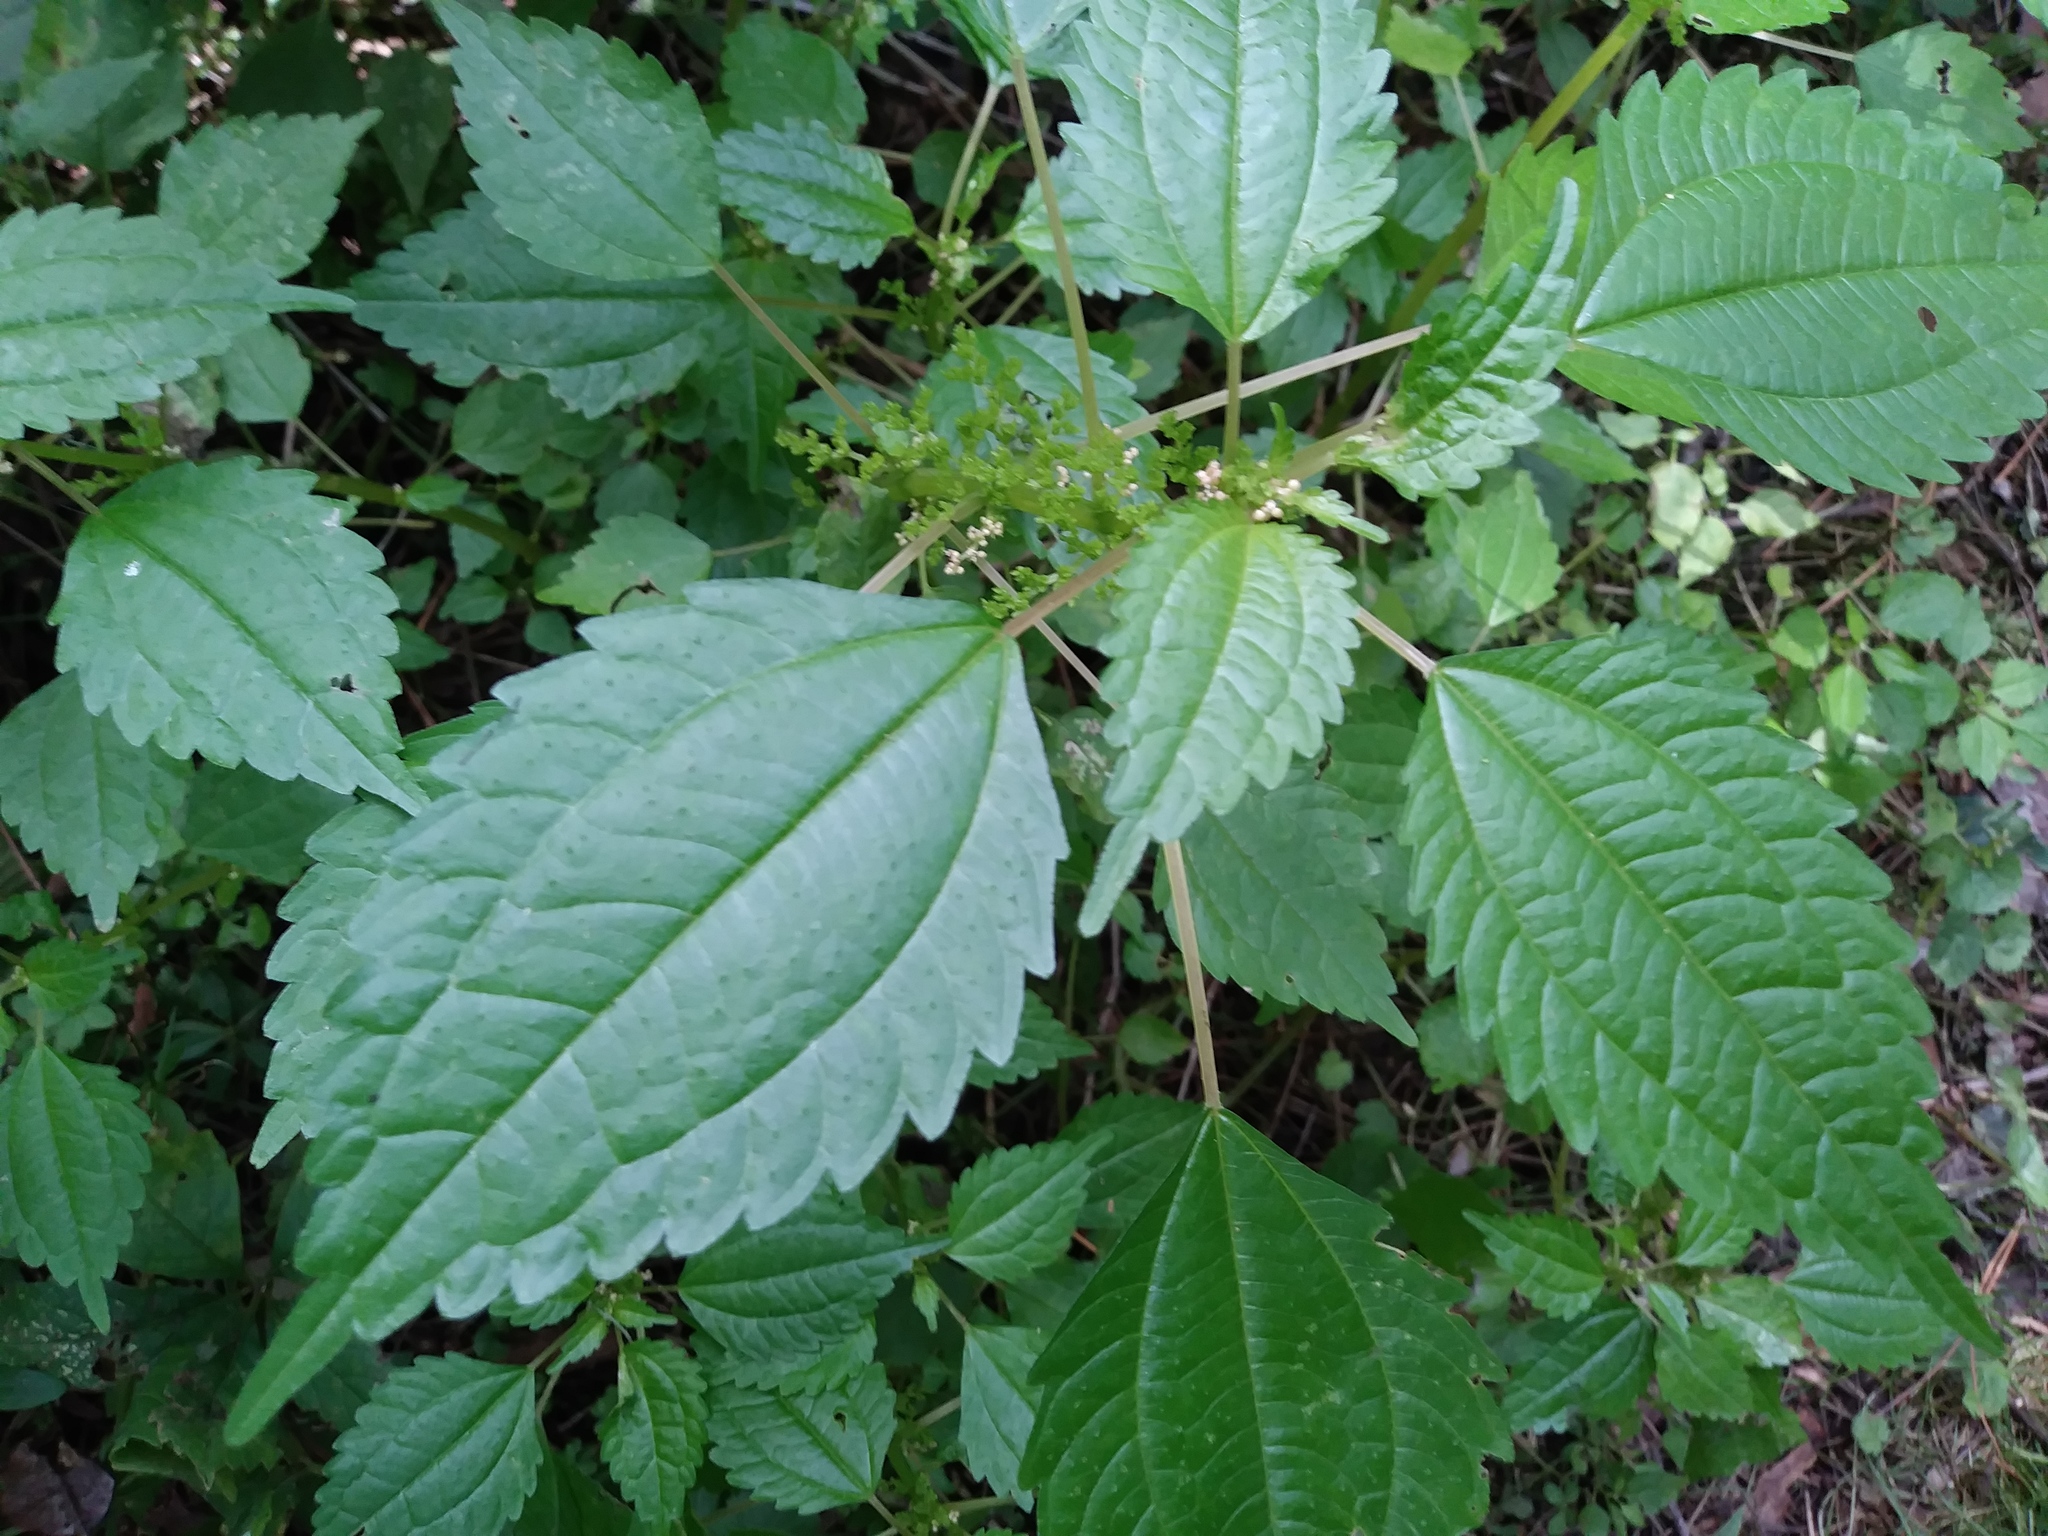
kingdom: Plantae
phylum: Tracheophyta
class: Magnoliopsida
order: Rosales
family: Urticaceae
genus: Pilea
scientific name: Pilea pumila
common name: Clearweed
